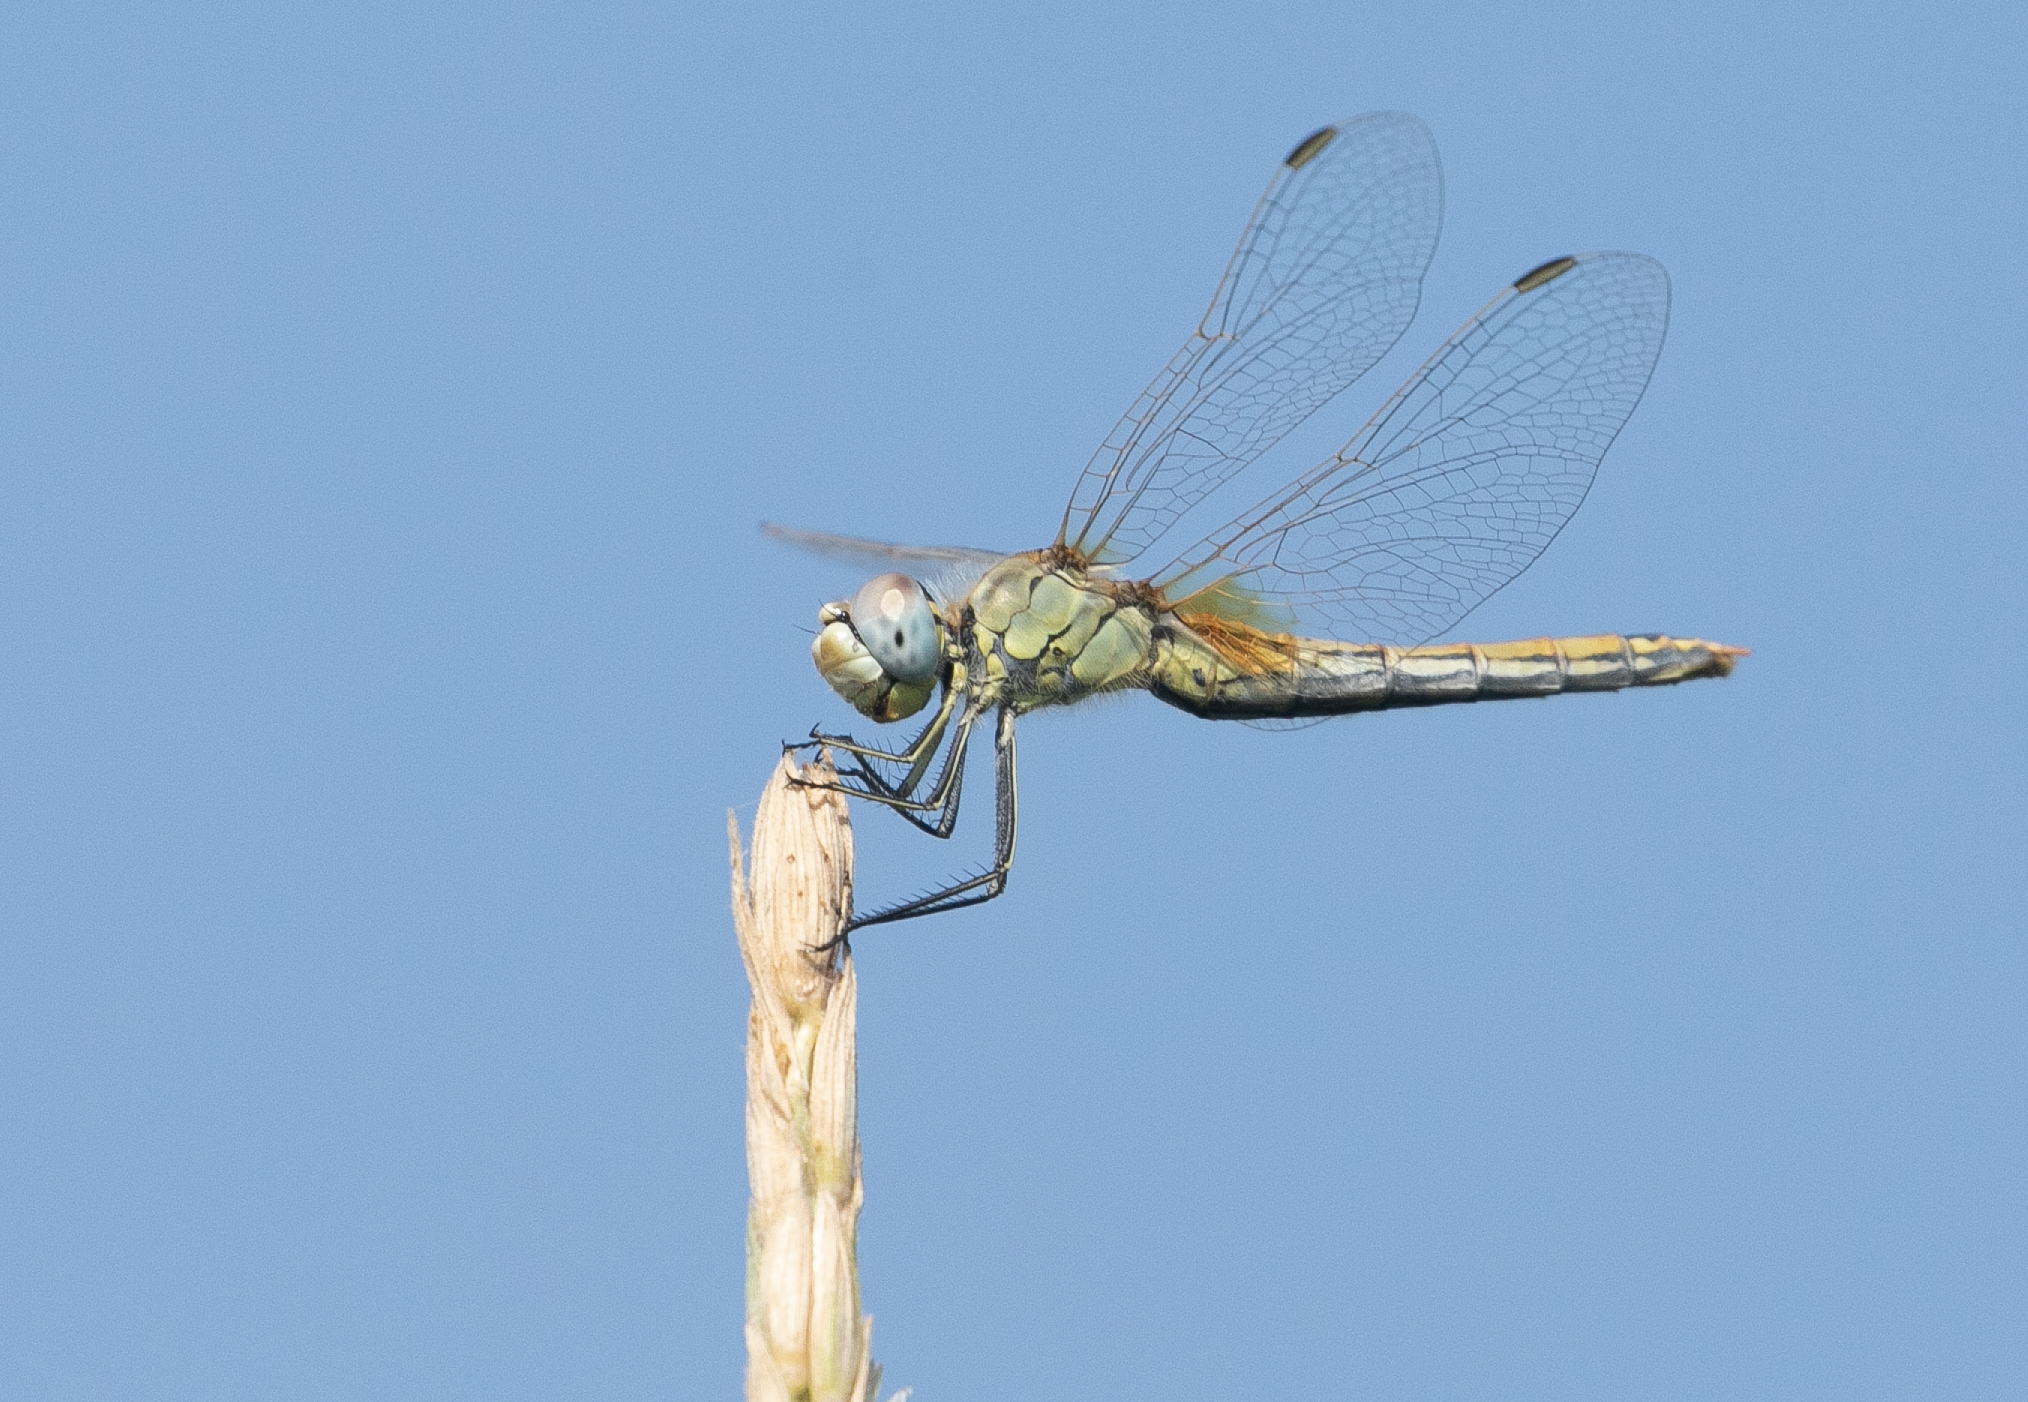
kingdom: Animalia
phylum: Arthropoda
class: Insecta
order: Odonata
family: Libellulidae
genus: Sympetrum
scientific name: Sympetrum fonscolombii
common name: Red-veined darter
